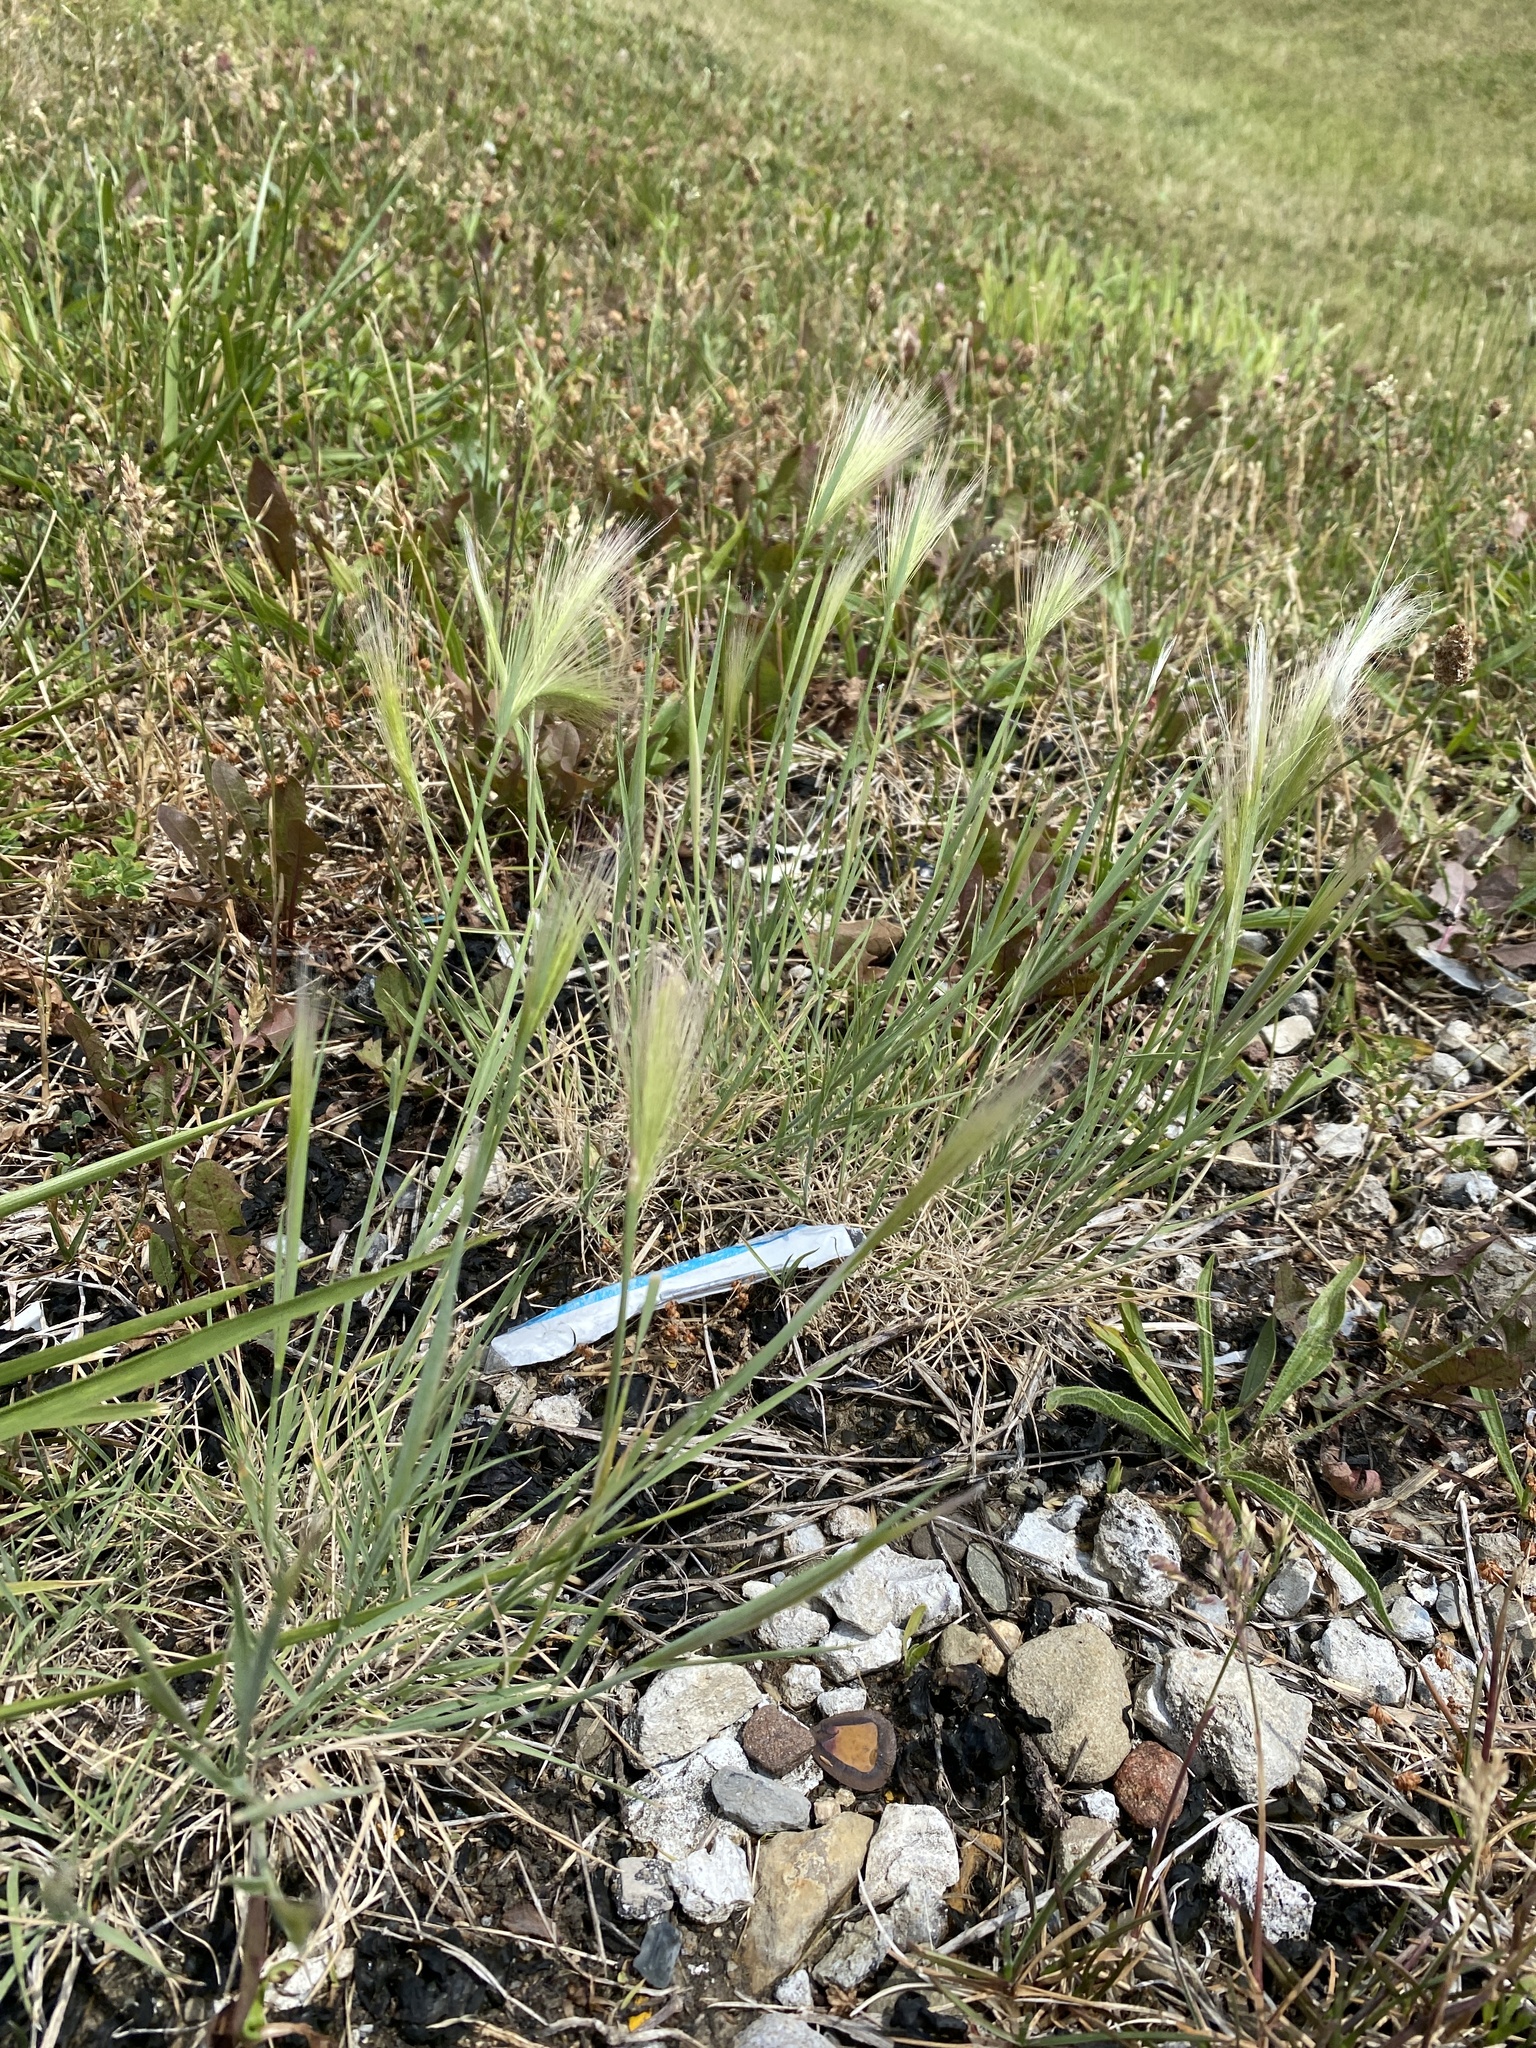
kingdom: Plantae
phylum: Tracheophyta
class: Liliopsida
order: Poales
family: Poaceae
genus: Hordeum
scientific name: Hordeum jubatum
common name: Foxtail barley
